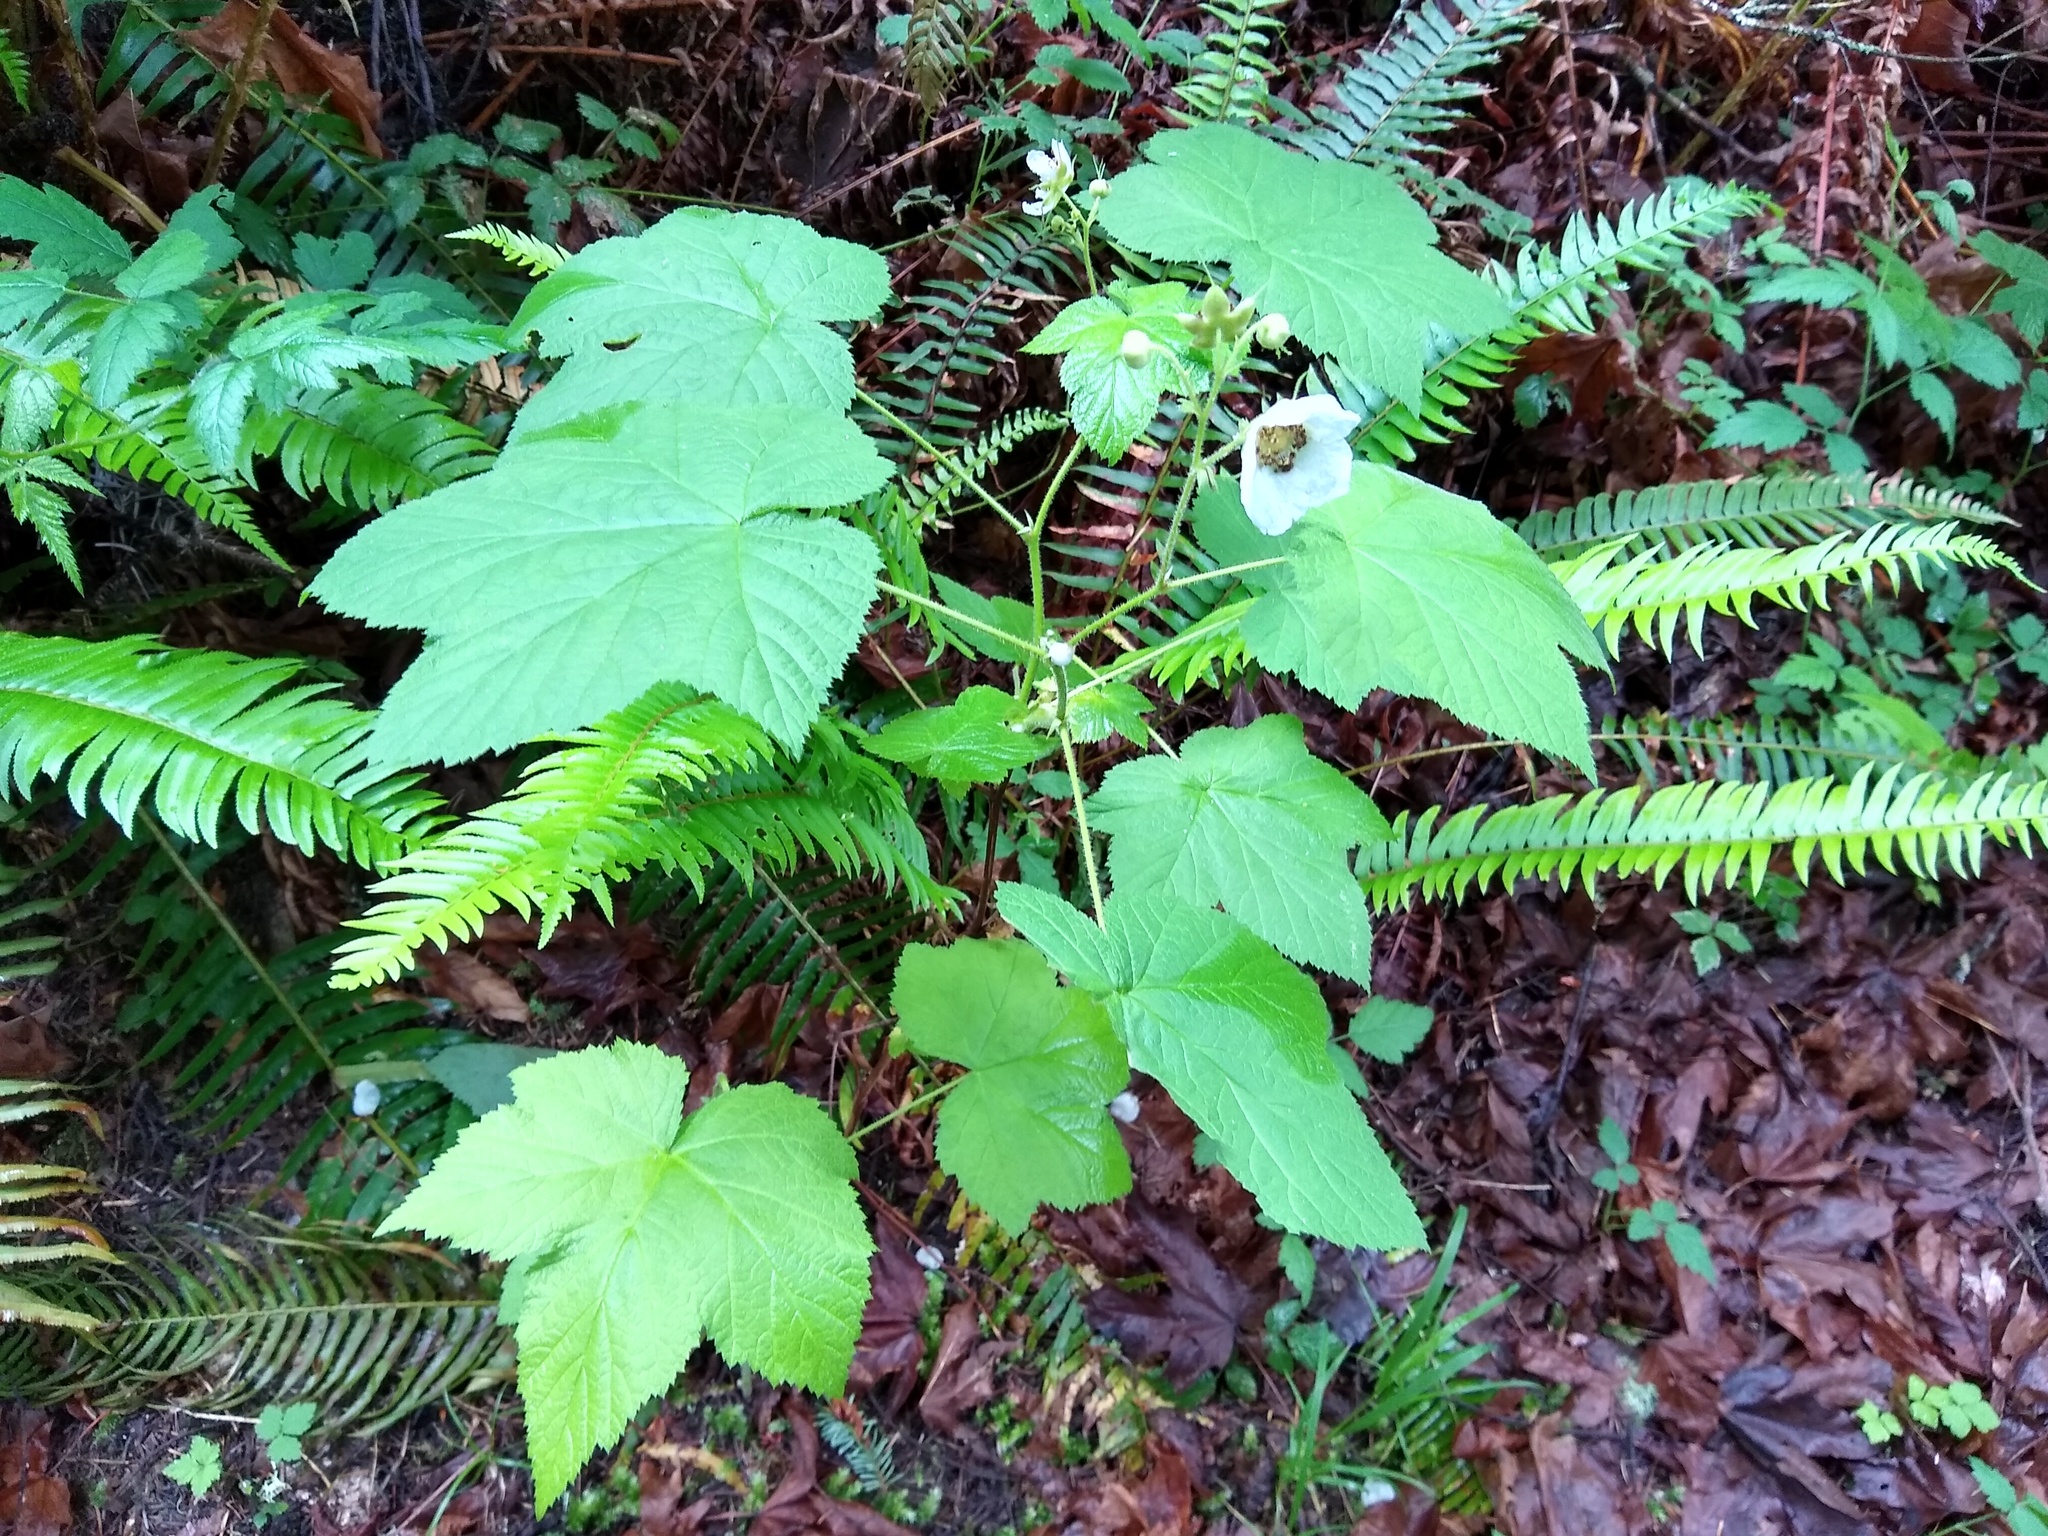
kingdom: Plantae
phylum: Tracheophyta
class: Magnoliopsida
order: Rosales
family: Rosaceae
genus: Rubus
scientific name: Rubus parviflorus
